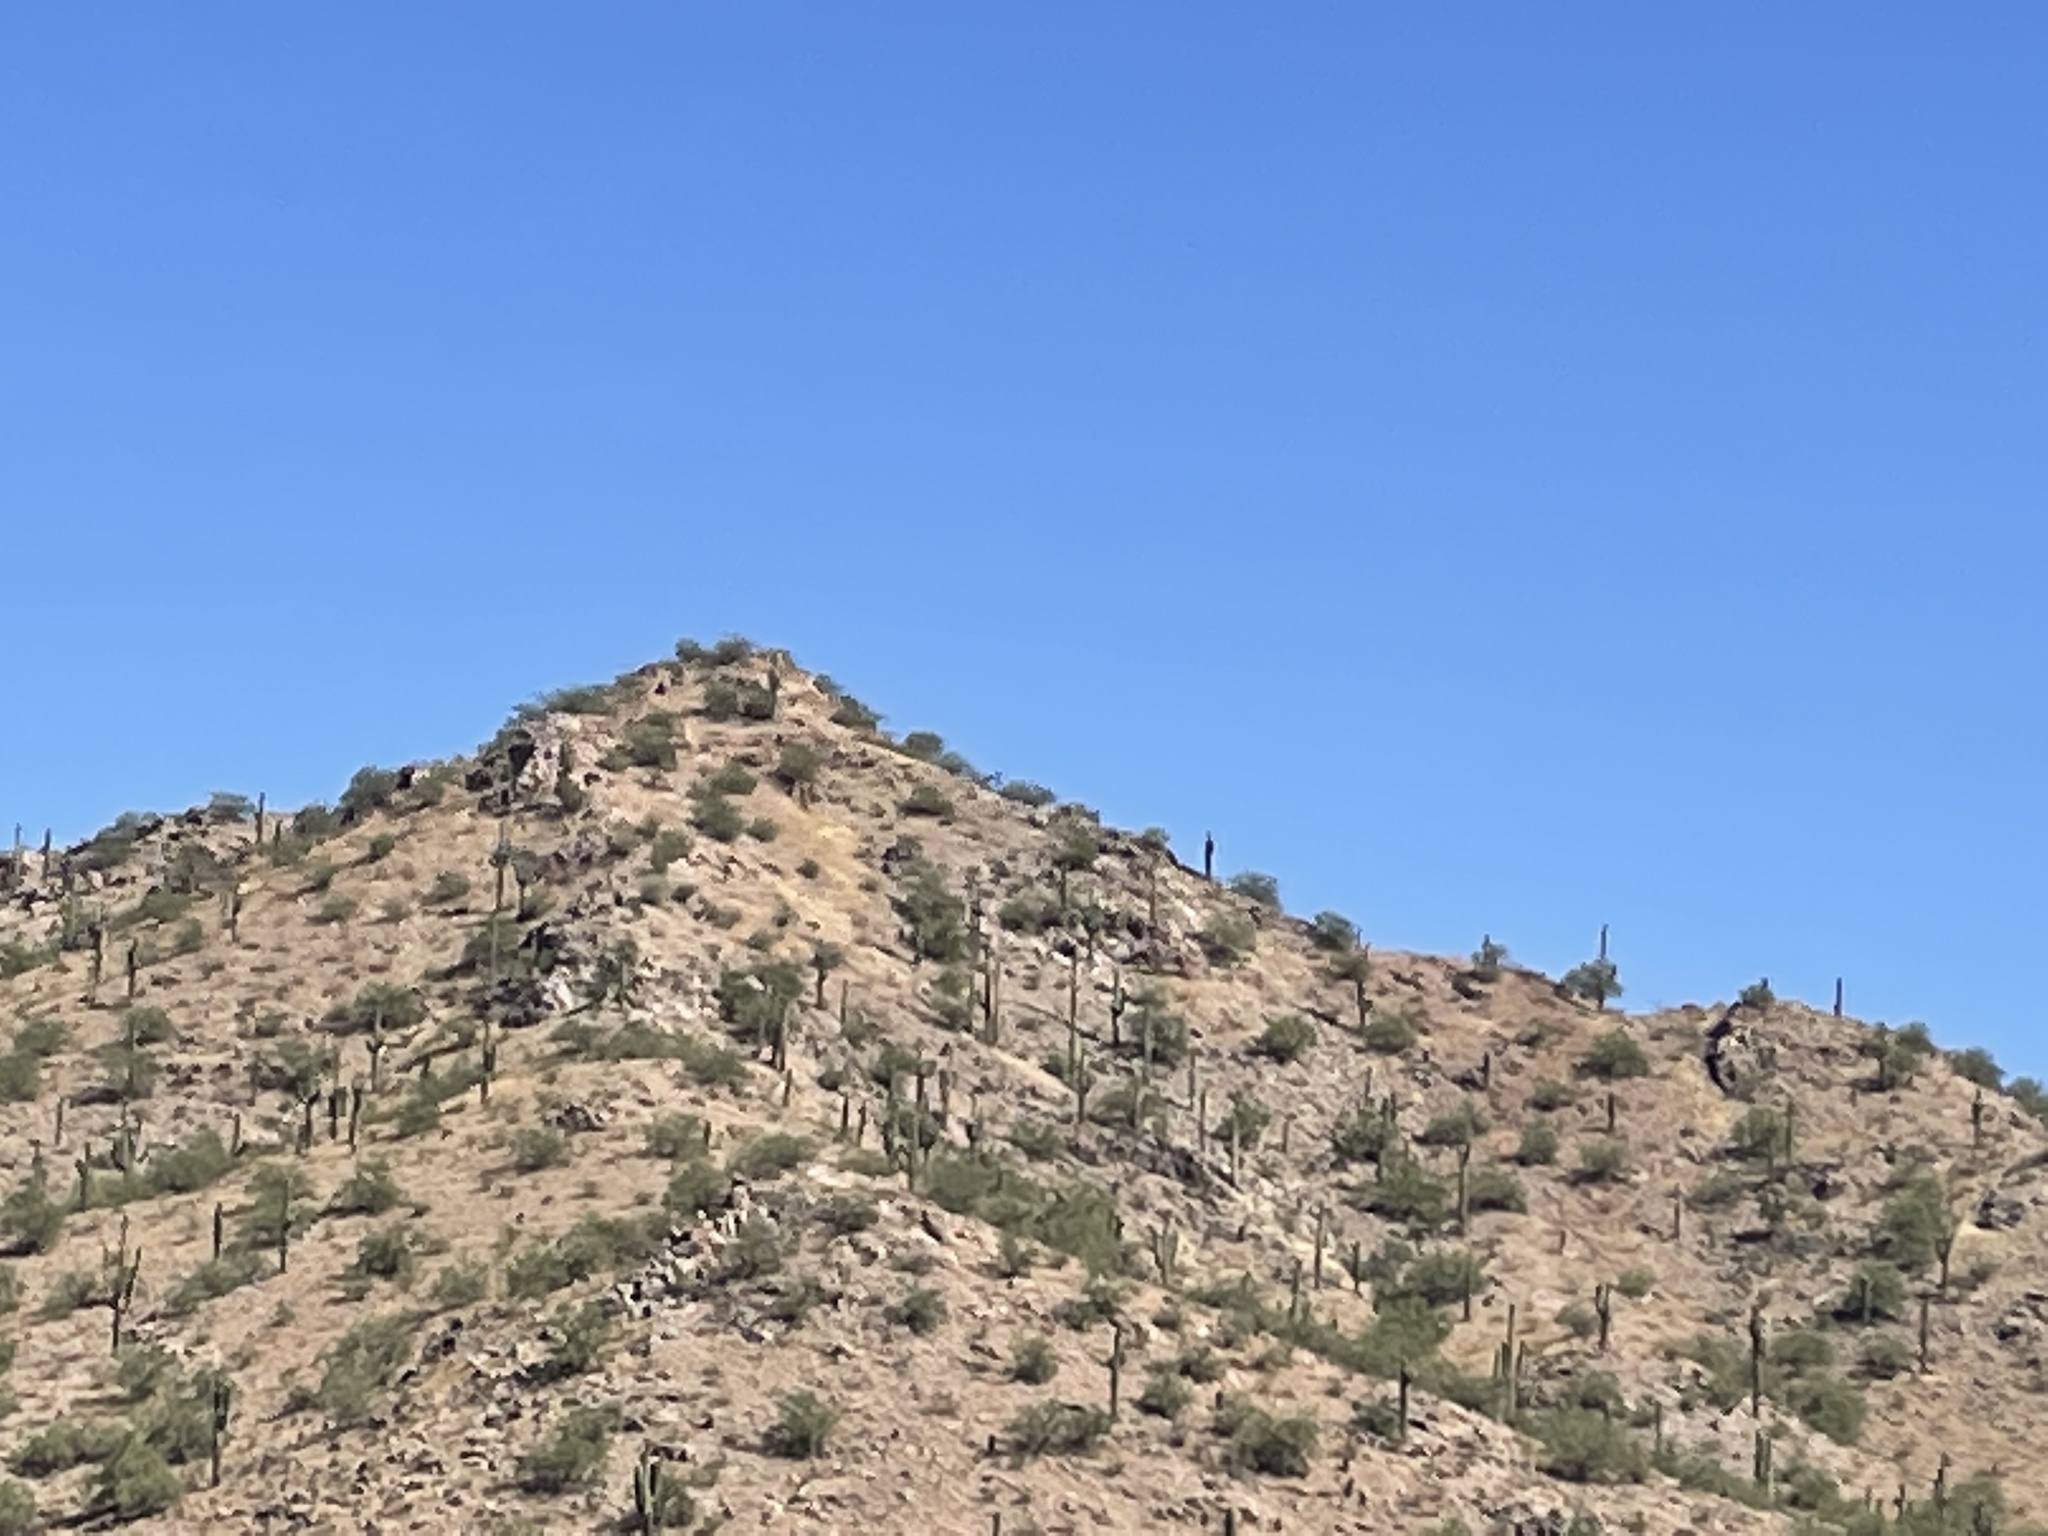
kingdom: Plantae
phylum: Tracheophyta
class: Magnoliopsida
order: Caryophyllales
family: Cactaceae
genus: Carnegiea
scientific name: Carnegiea gigantea
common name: Saguaro
